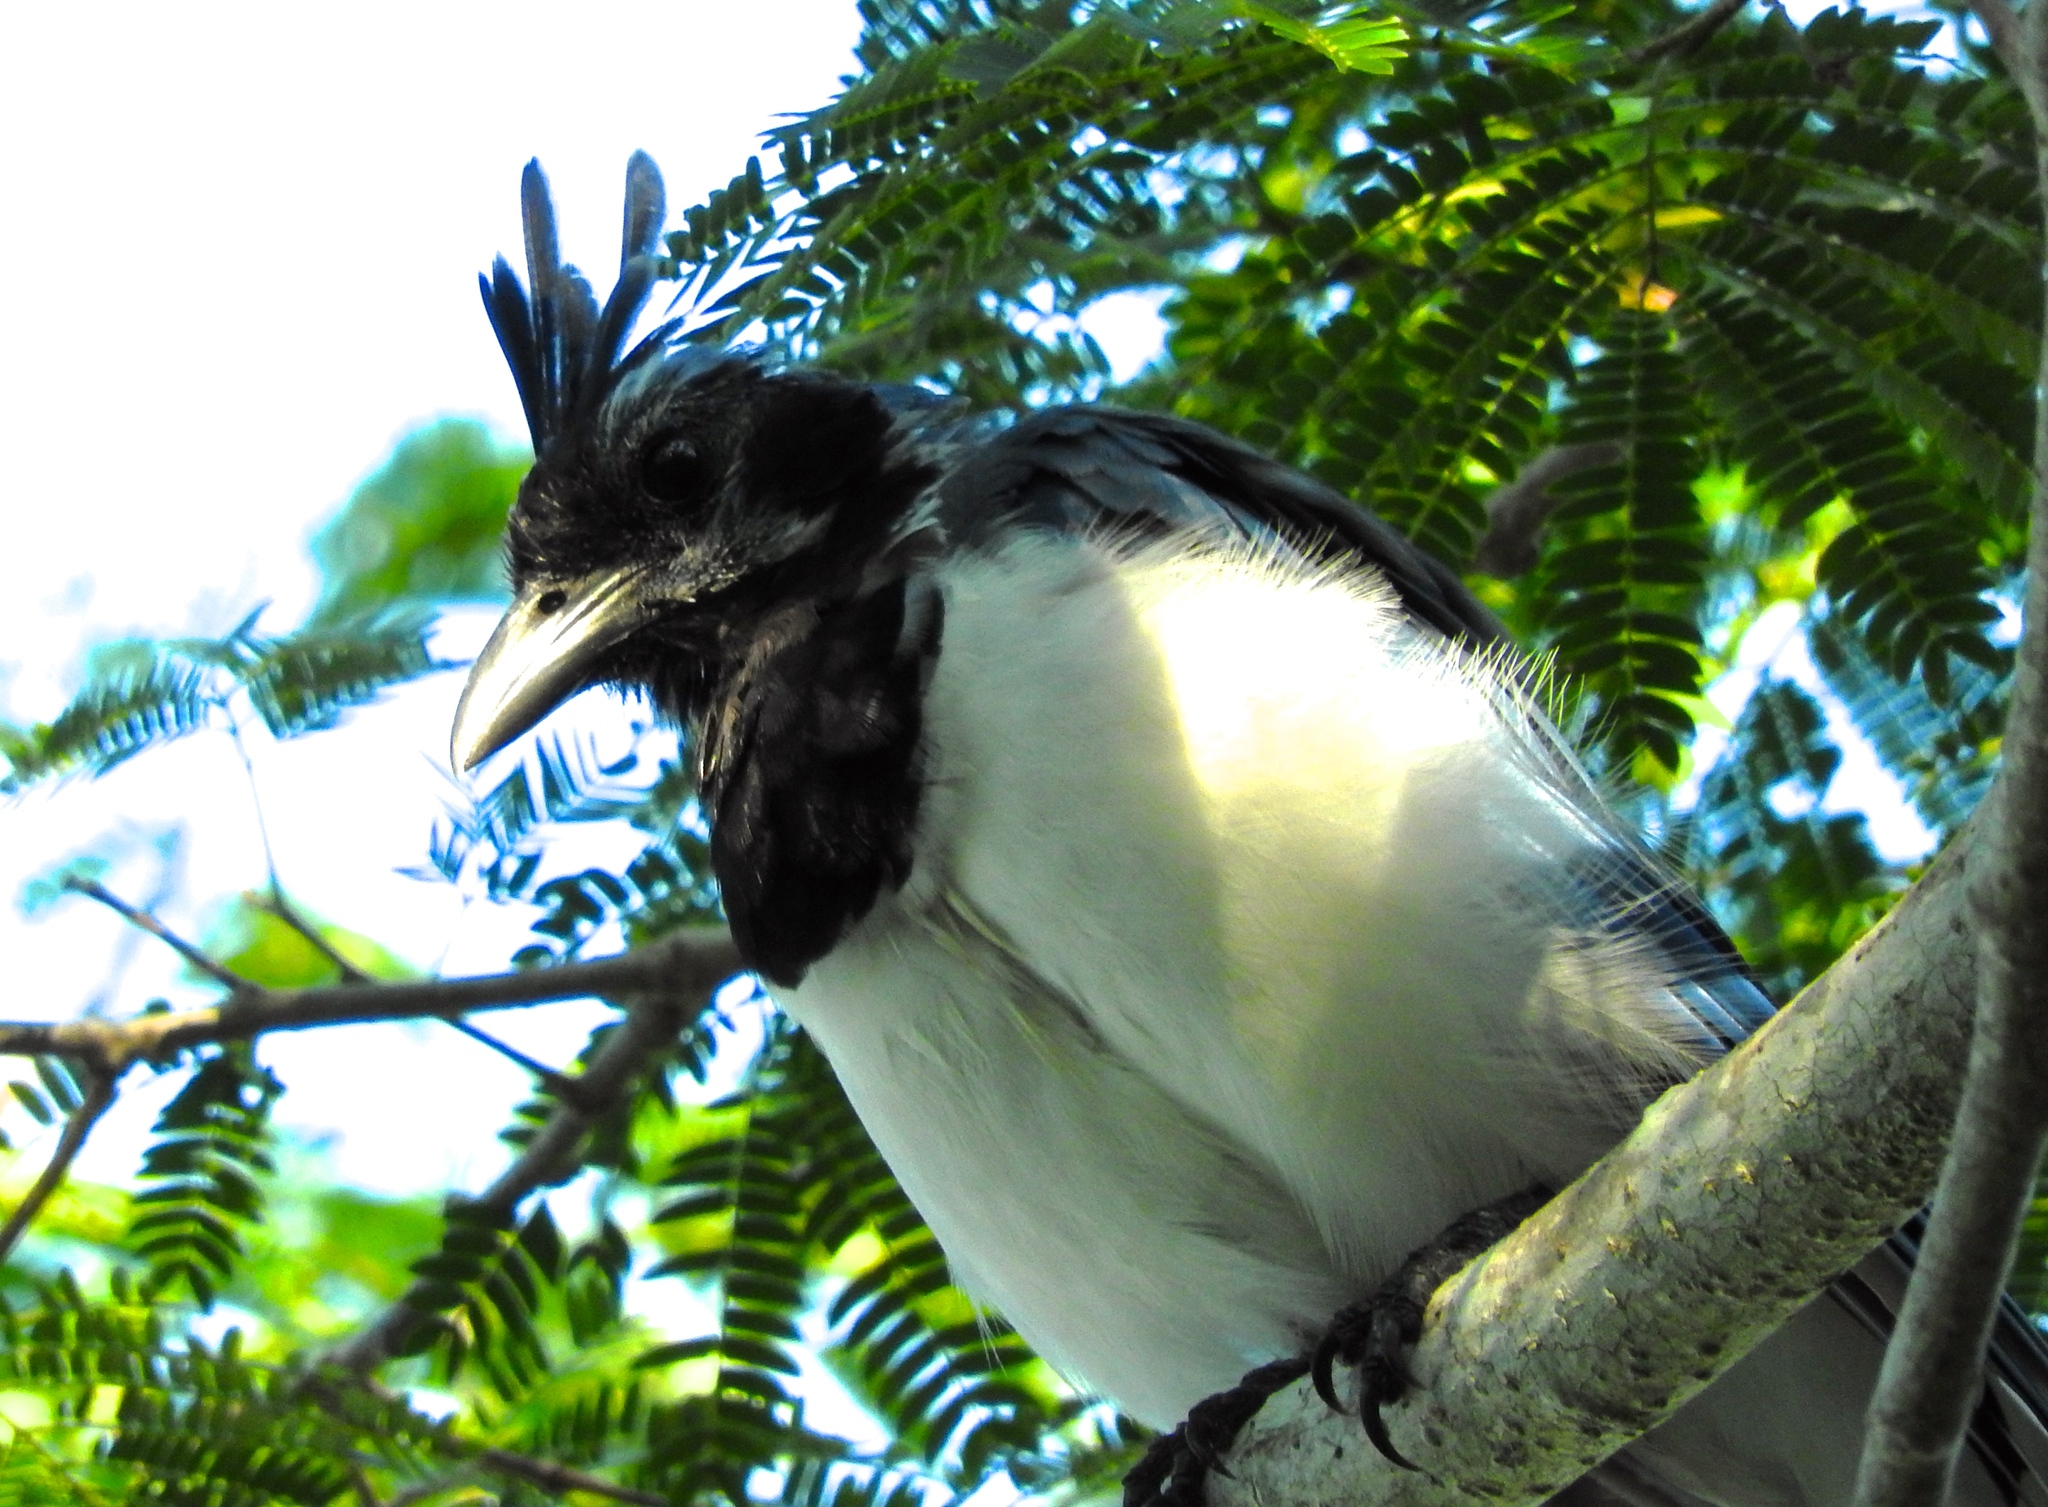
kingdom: Animalia
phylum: Chordata
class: Aves
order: Passeriformes
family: Corvidae
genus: Calocitta
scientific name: Calocitta colliei
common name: Black-throated magpie-jay
